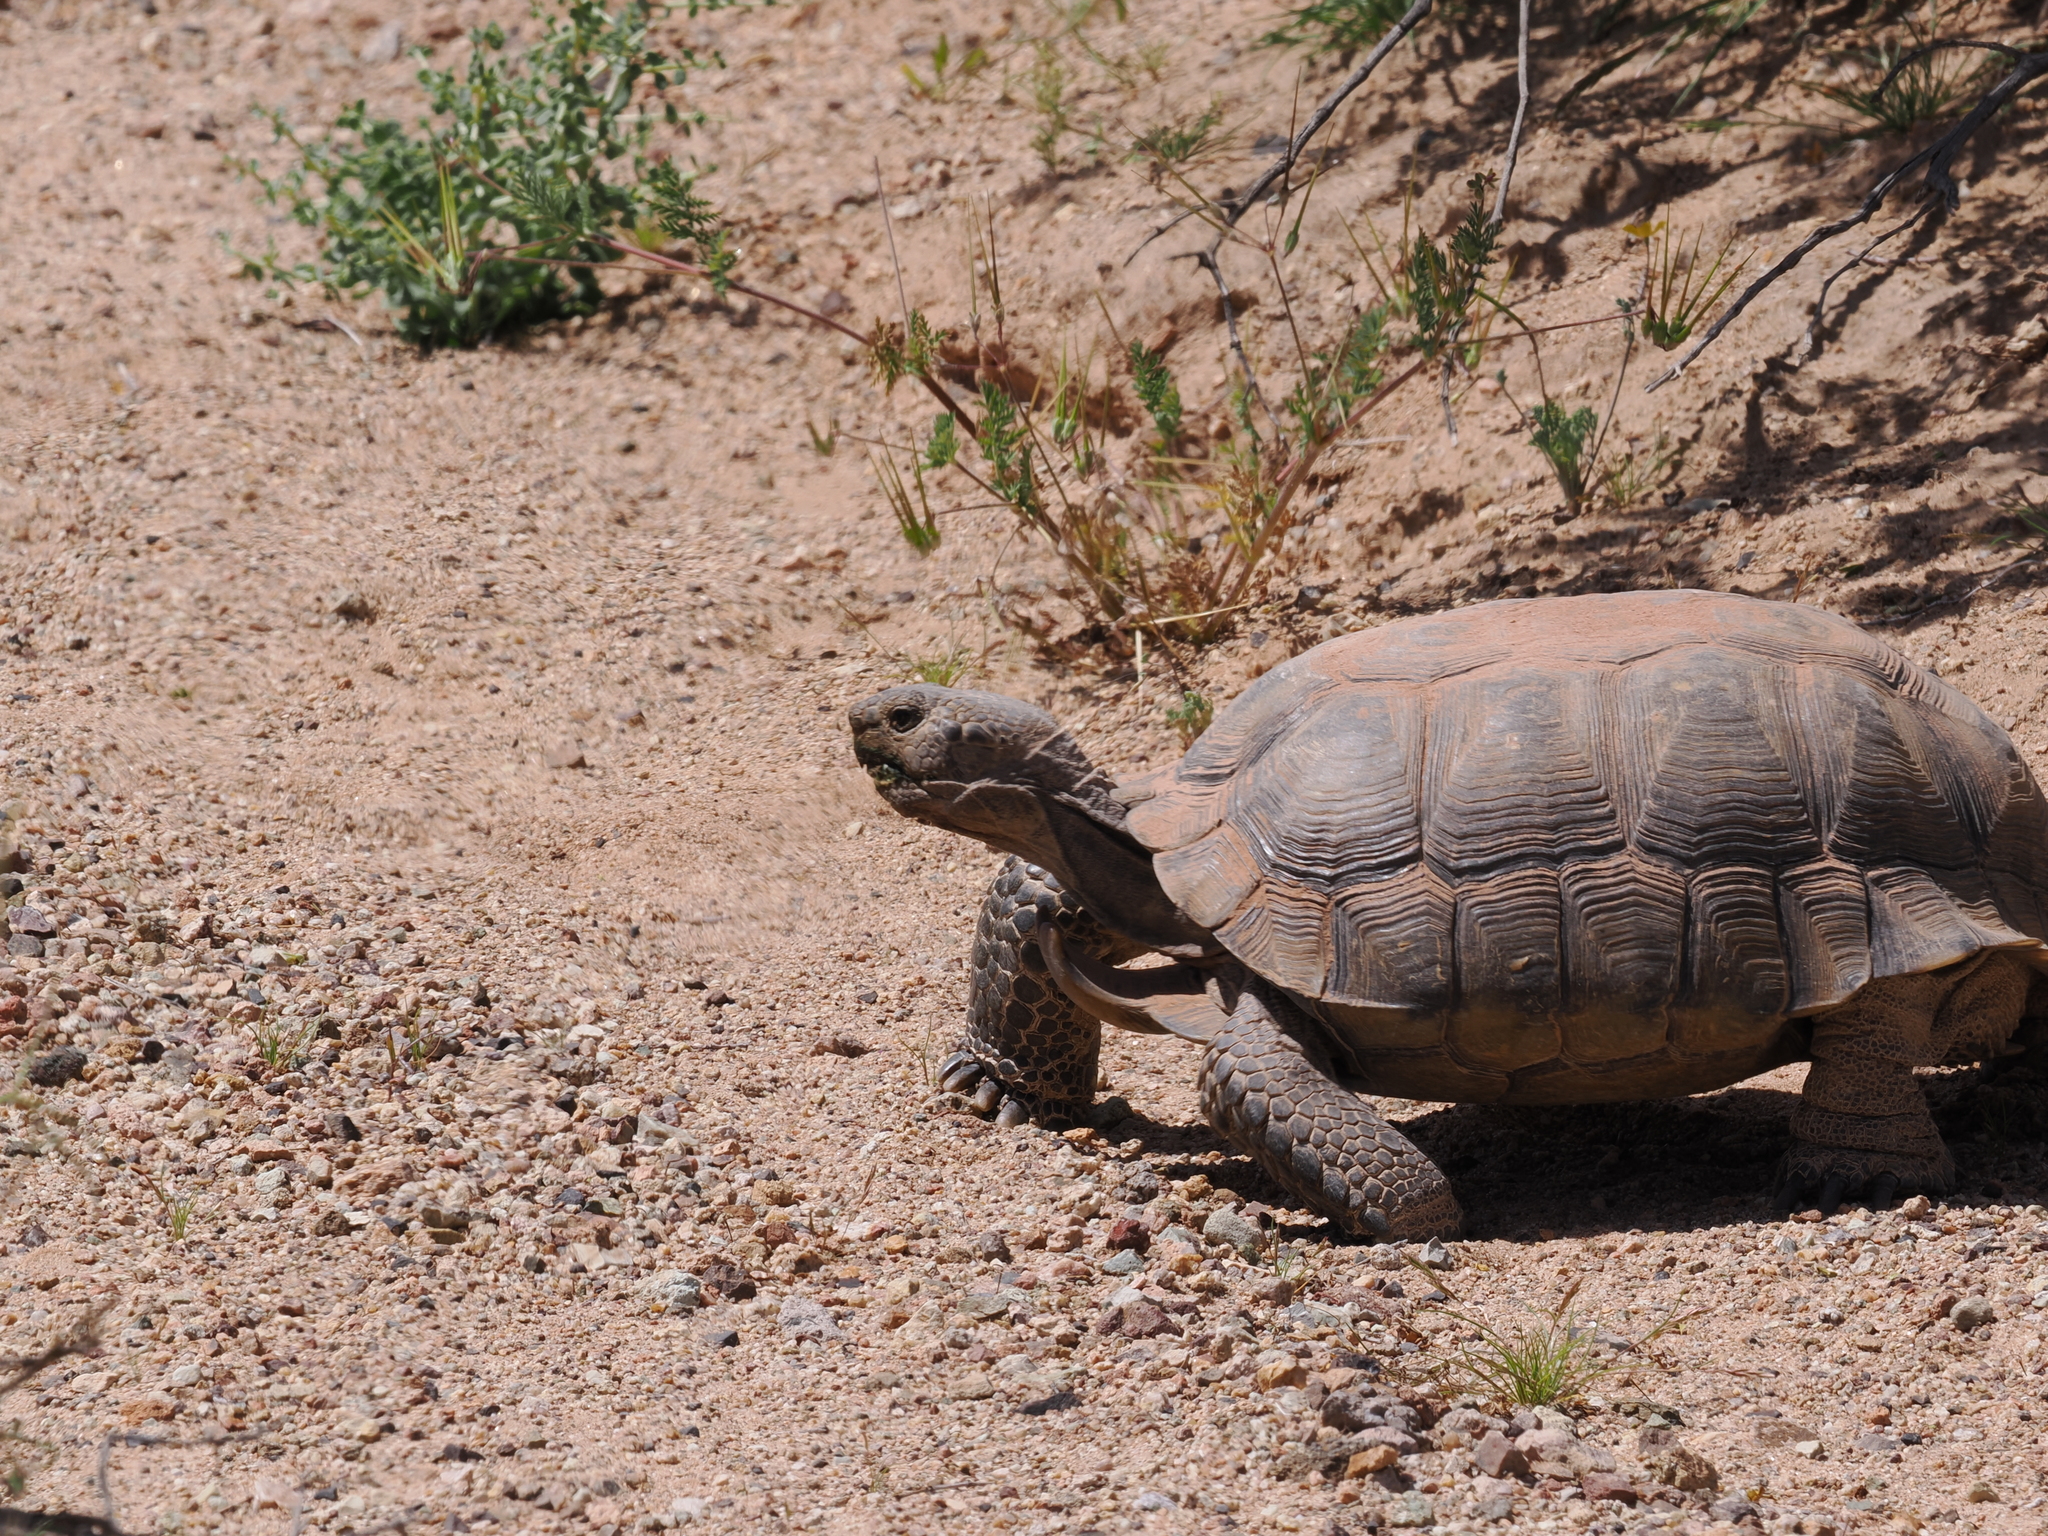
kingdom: Animalia
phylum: Chordata
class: Testudines
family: Testudinidae
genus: Gopherus
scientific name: Gopherus agassizii
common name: Mojave desert tortoise
